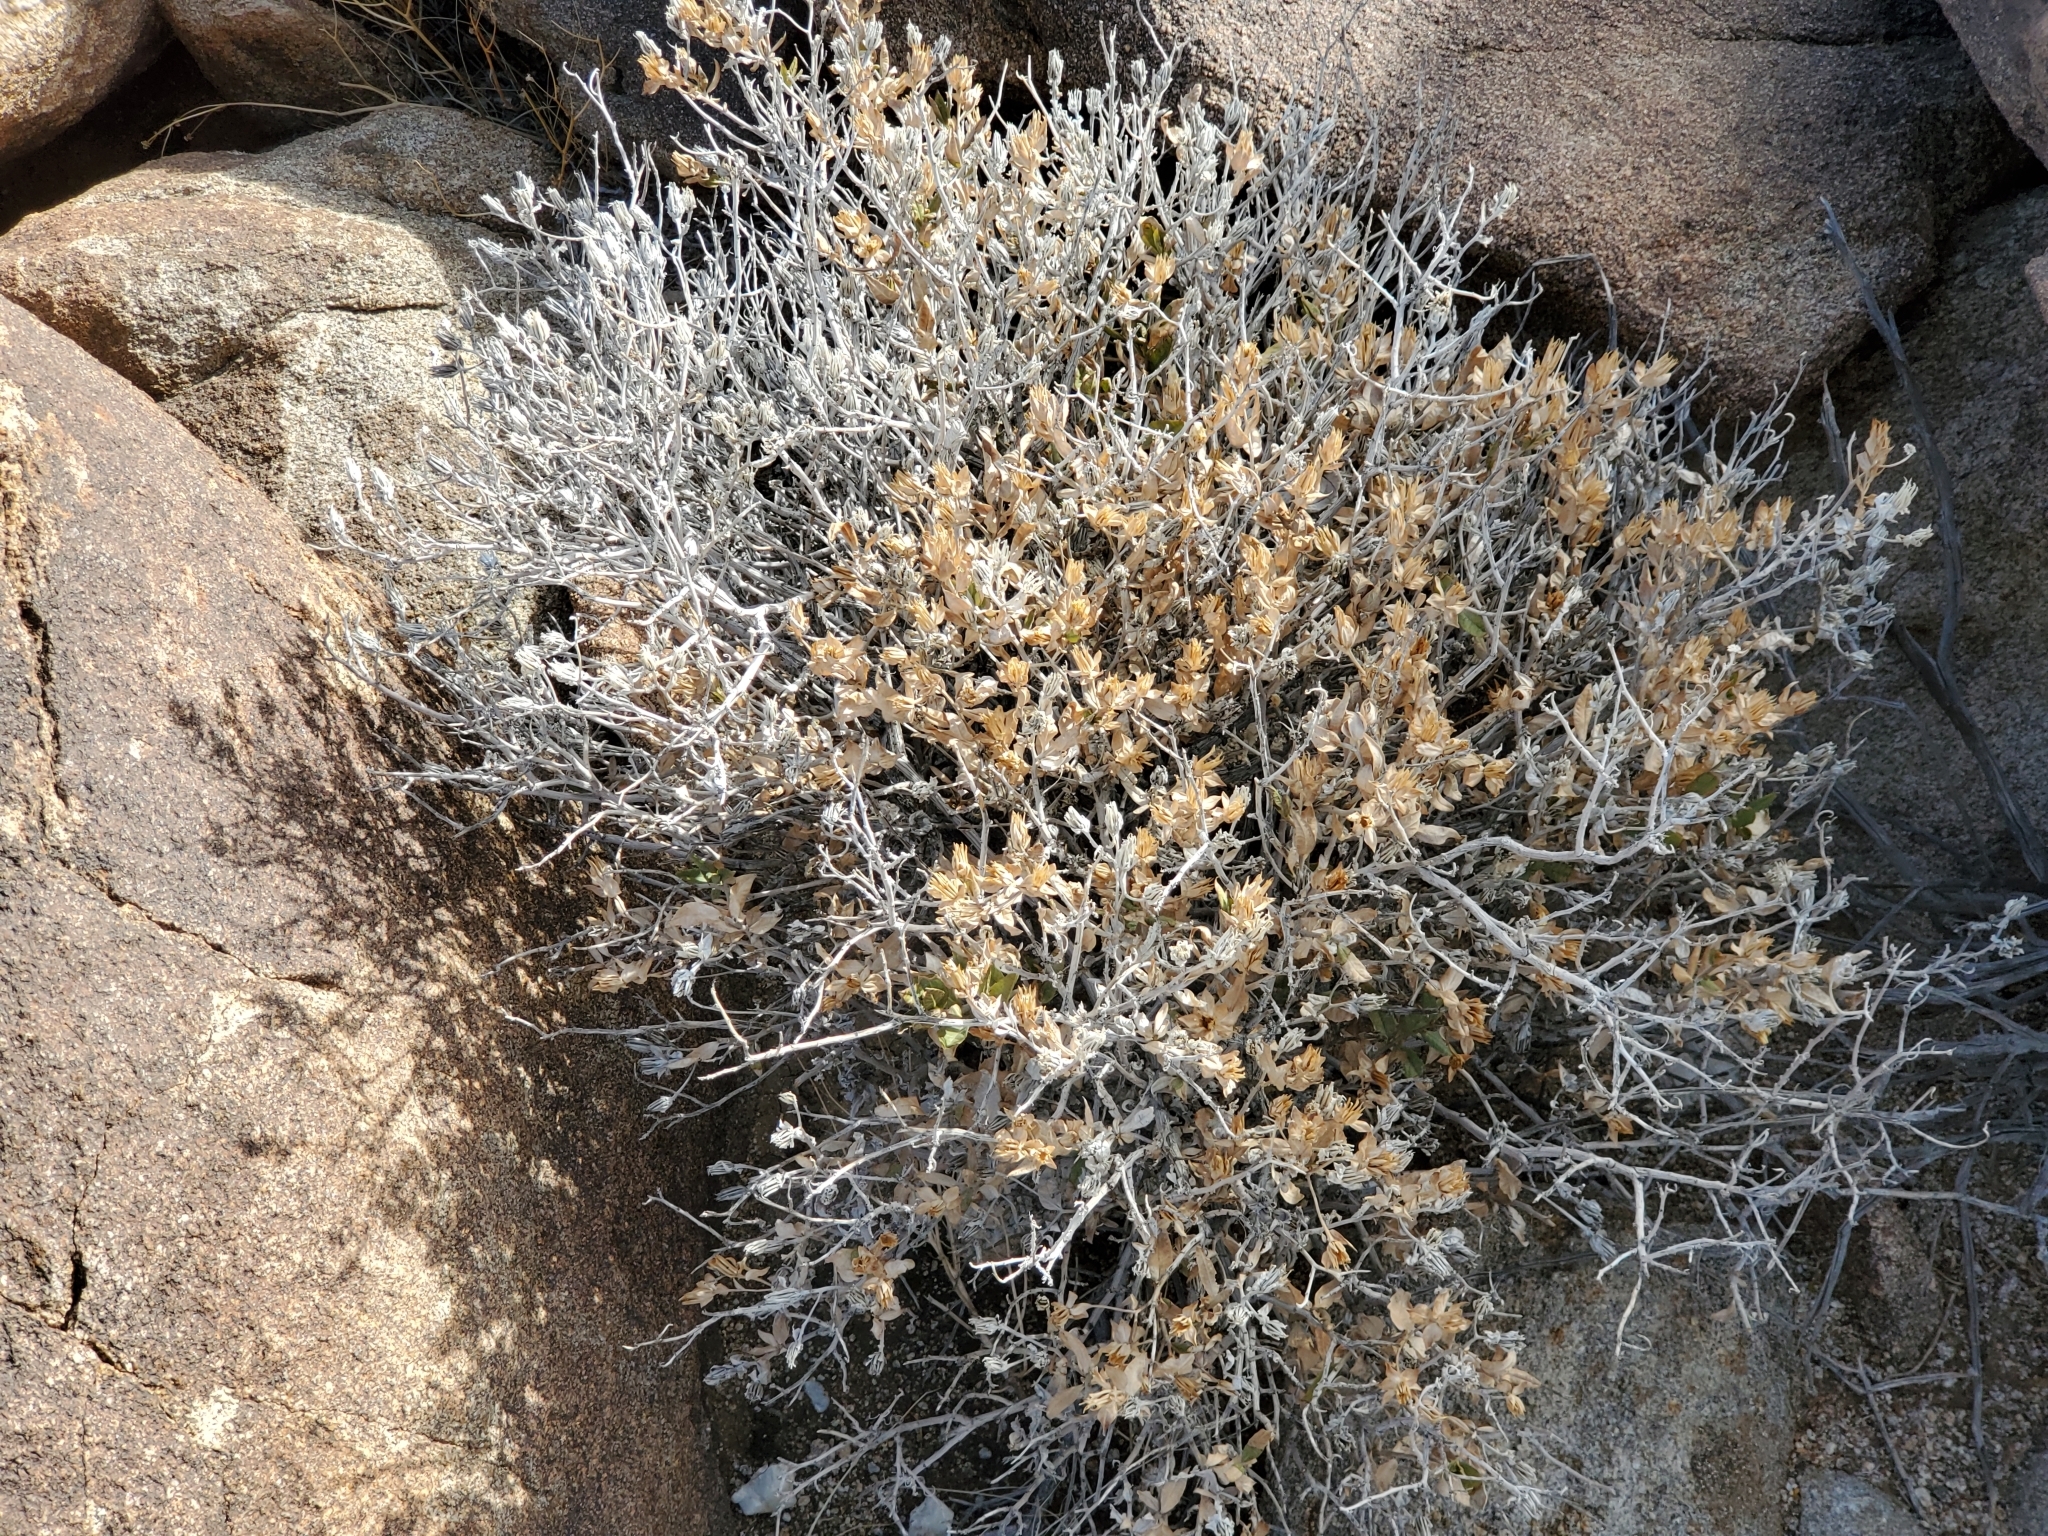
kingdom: Plantae
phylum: Tracheophyta
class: Magnoliopsida
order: Asterales
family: Asteraceae
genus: Trixis
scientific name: Trixis californica
